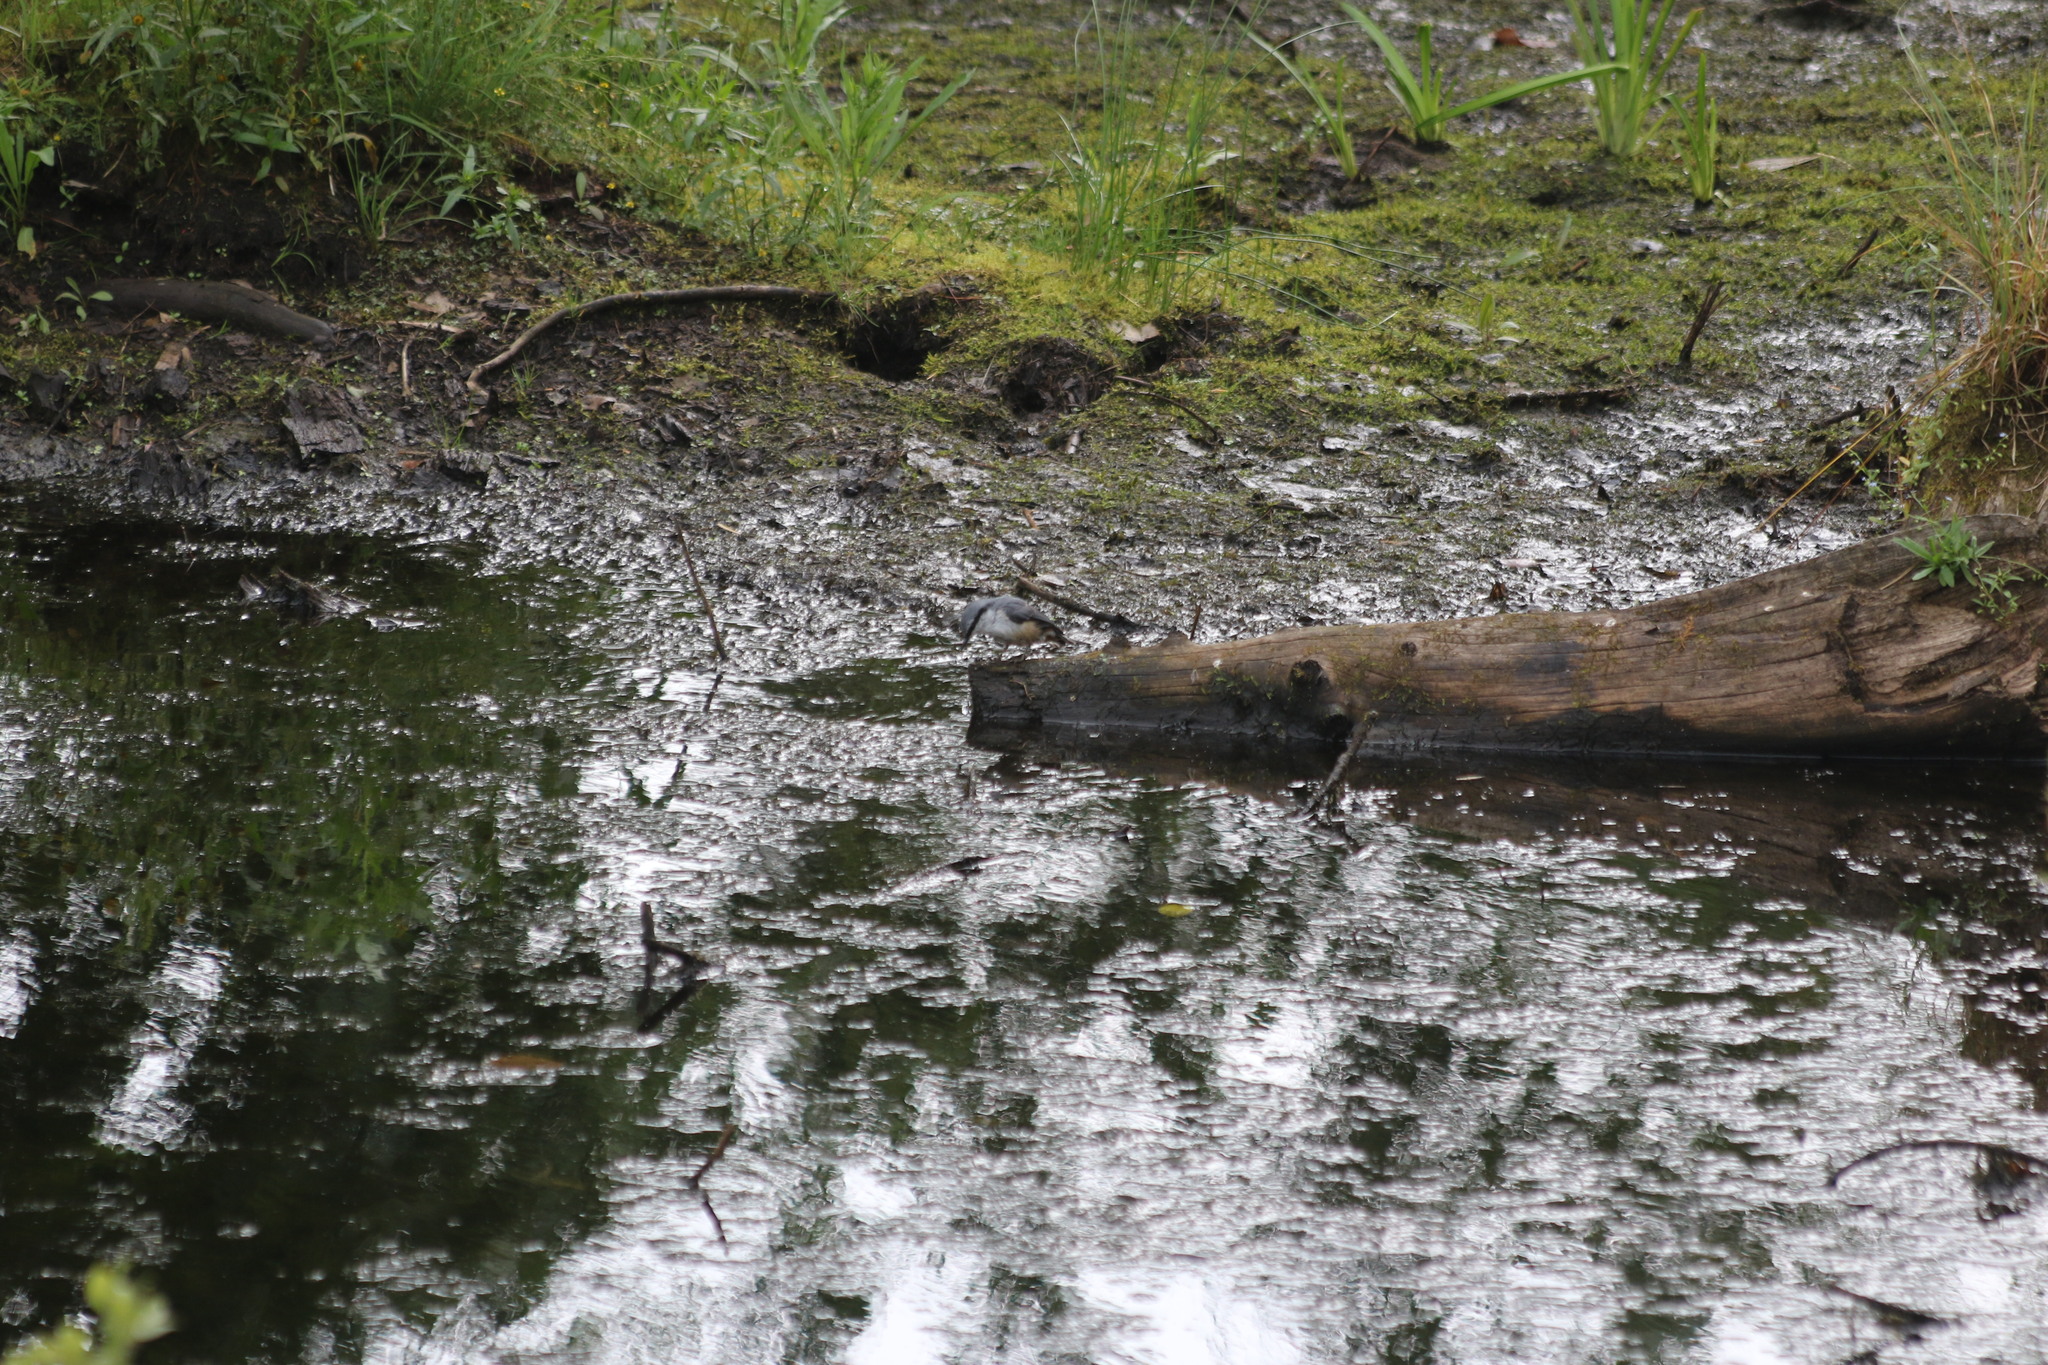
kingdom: Animalia
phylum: Chordata
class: Aves
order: Passeriformes
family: Sittidae
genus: Sitta
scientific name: Sitta europaea
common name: Eurasian nuthatch
